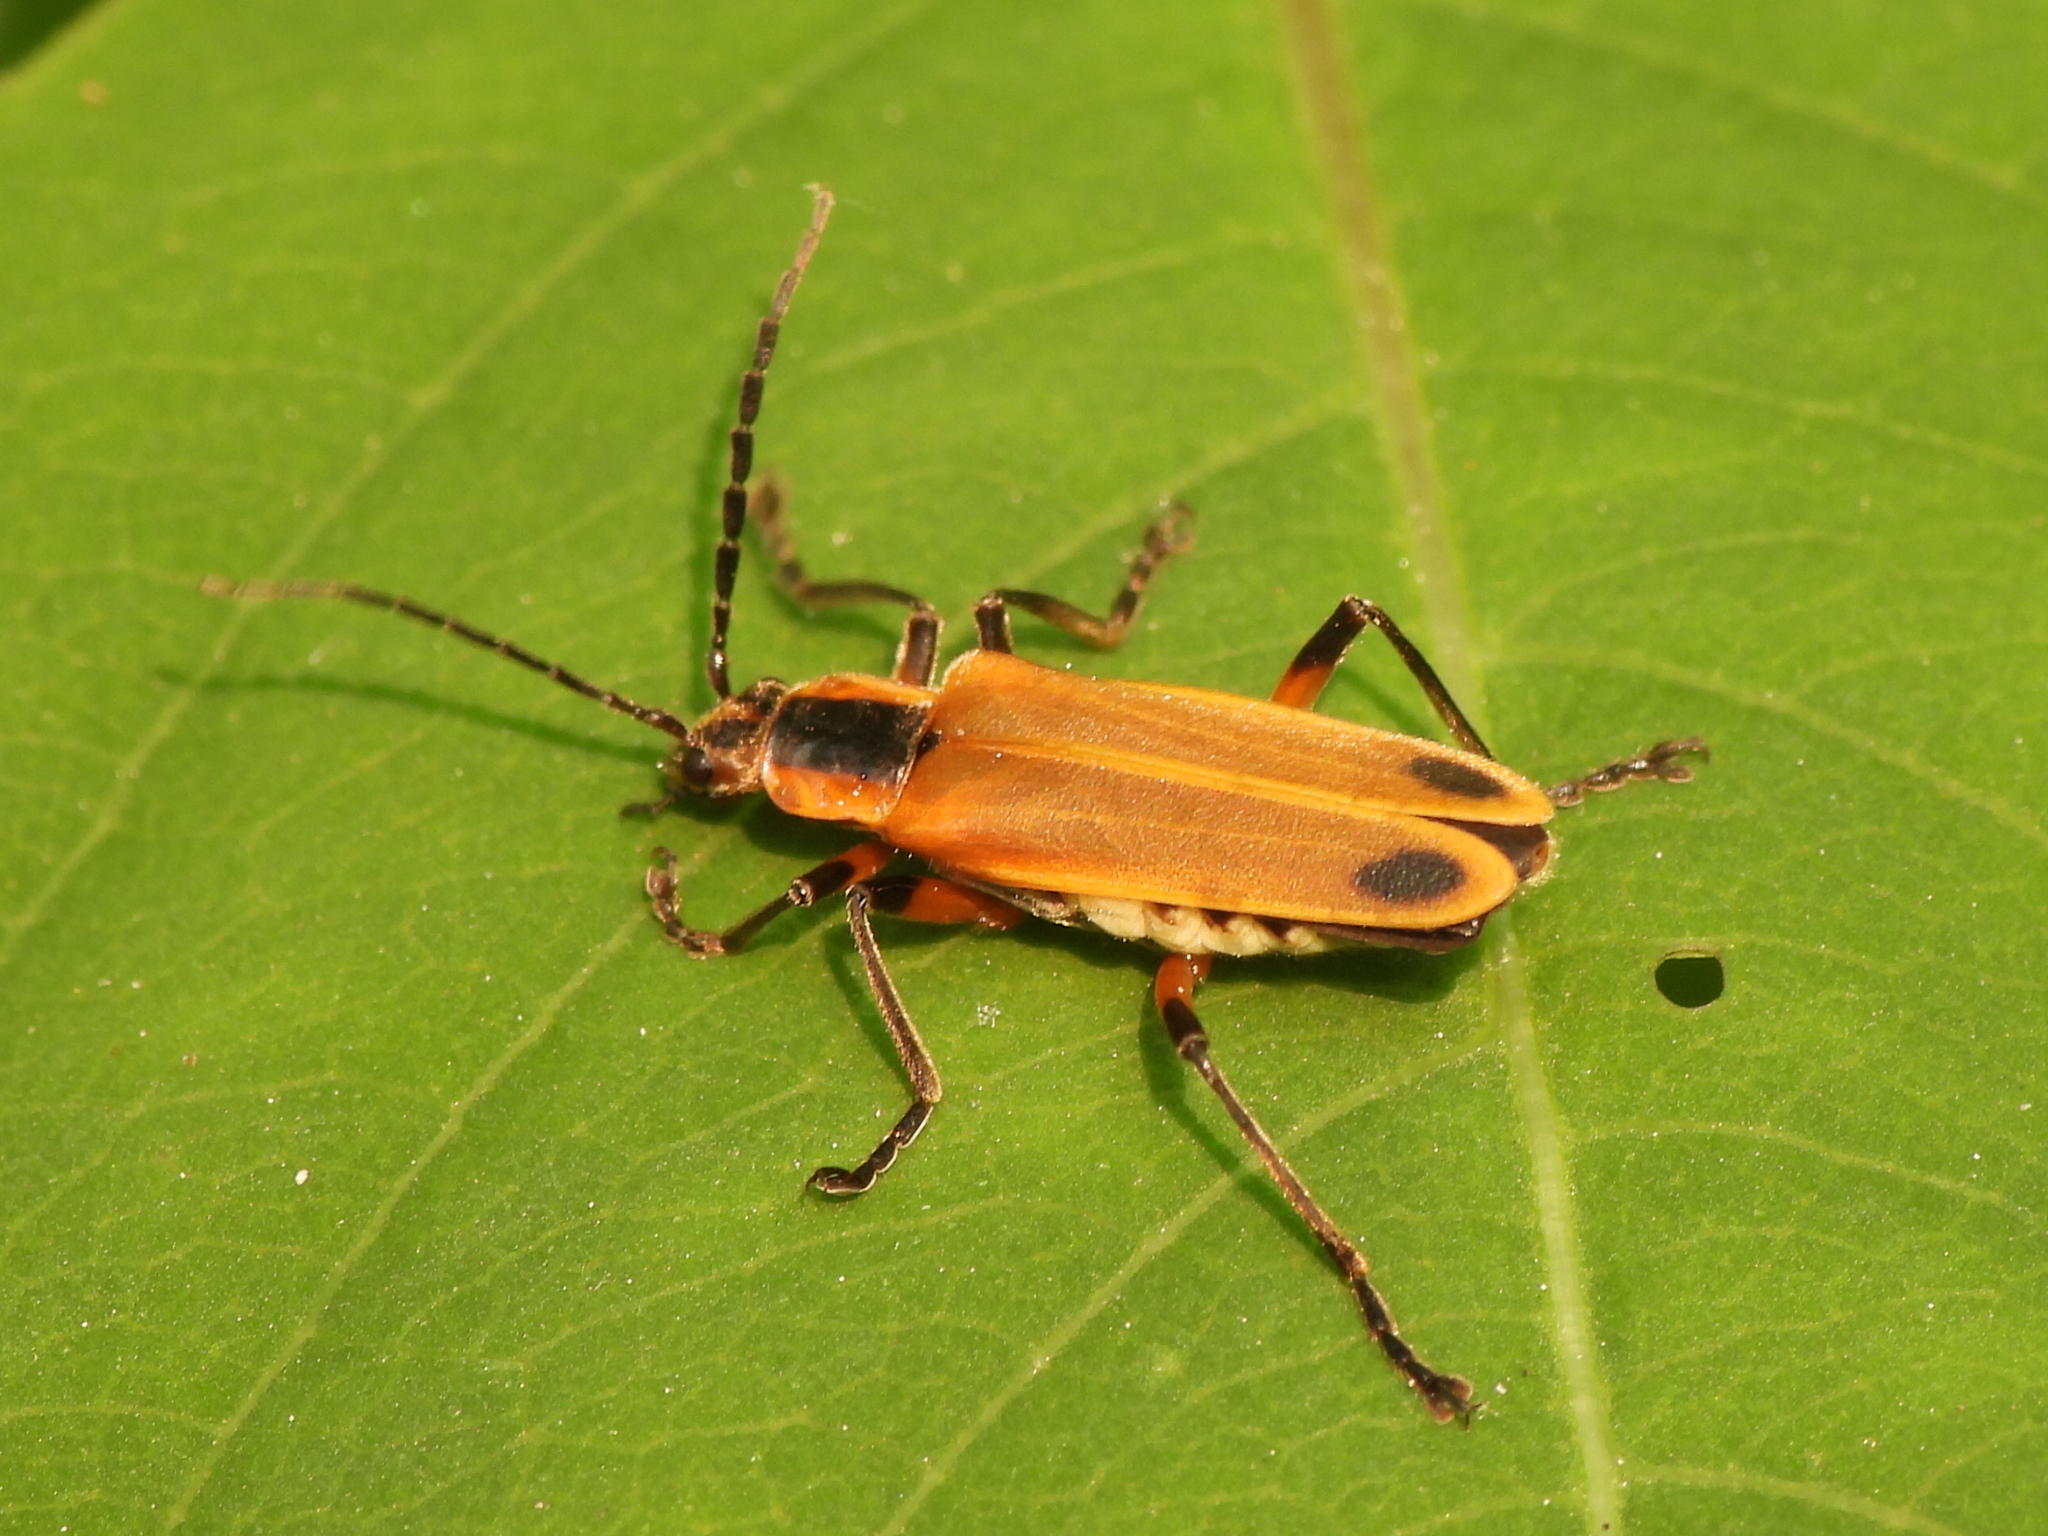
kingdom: Animalia
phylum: Arthropoda
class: Insecta
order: Coleoptera
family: Cantharidae
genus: Chauliognathus
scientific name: Chauliognathus marginatus
